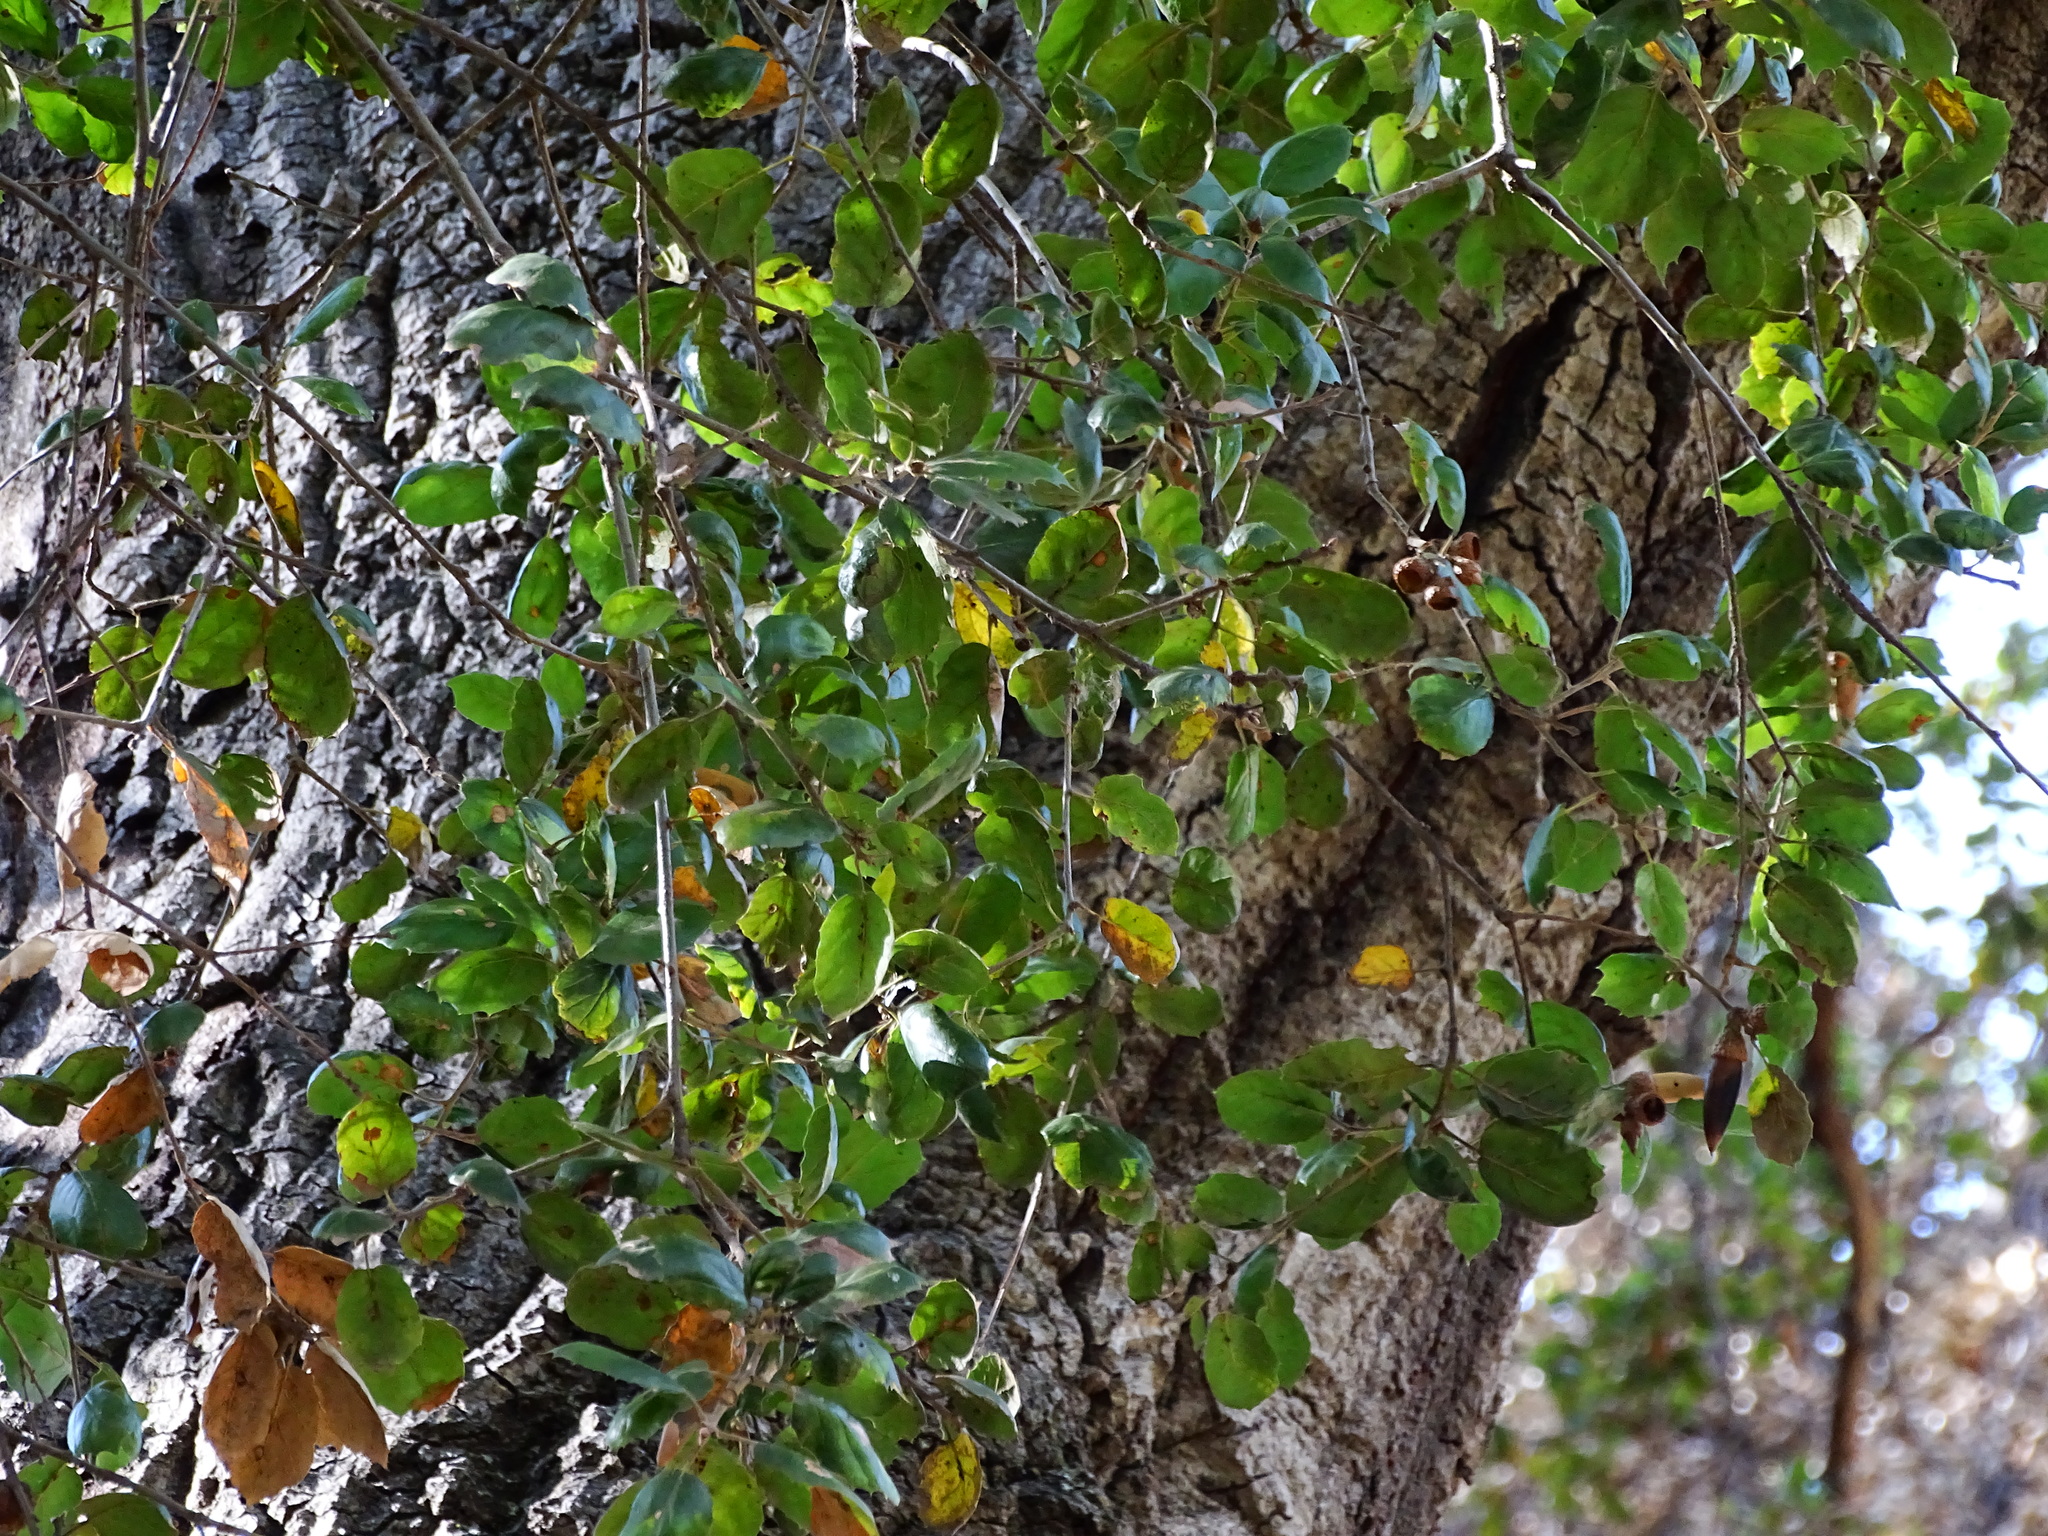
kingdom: Plantae
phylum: Tracheophyta
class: Magnoliopsida
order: Fagales
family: Fagaceae
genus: Quercus
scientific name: Quercus agrifolia
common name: California live oak
